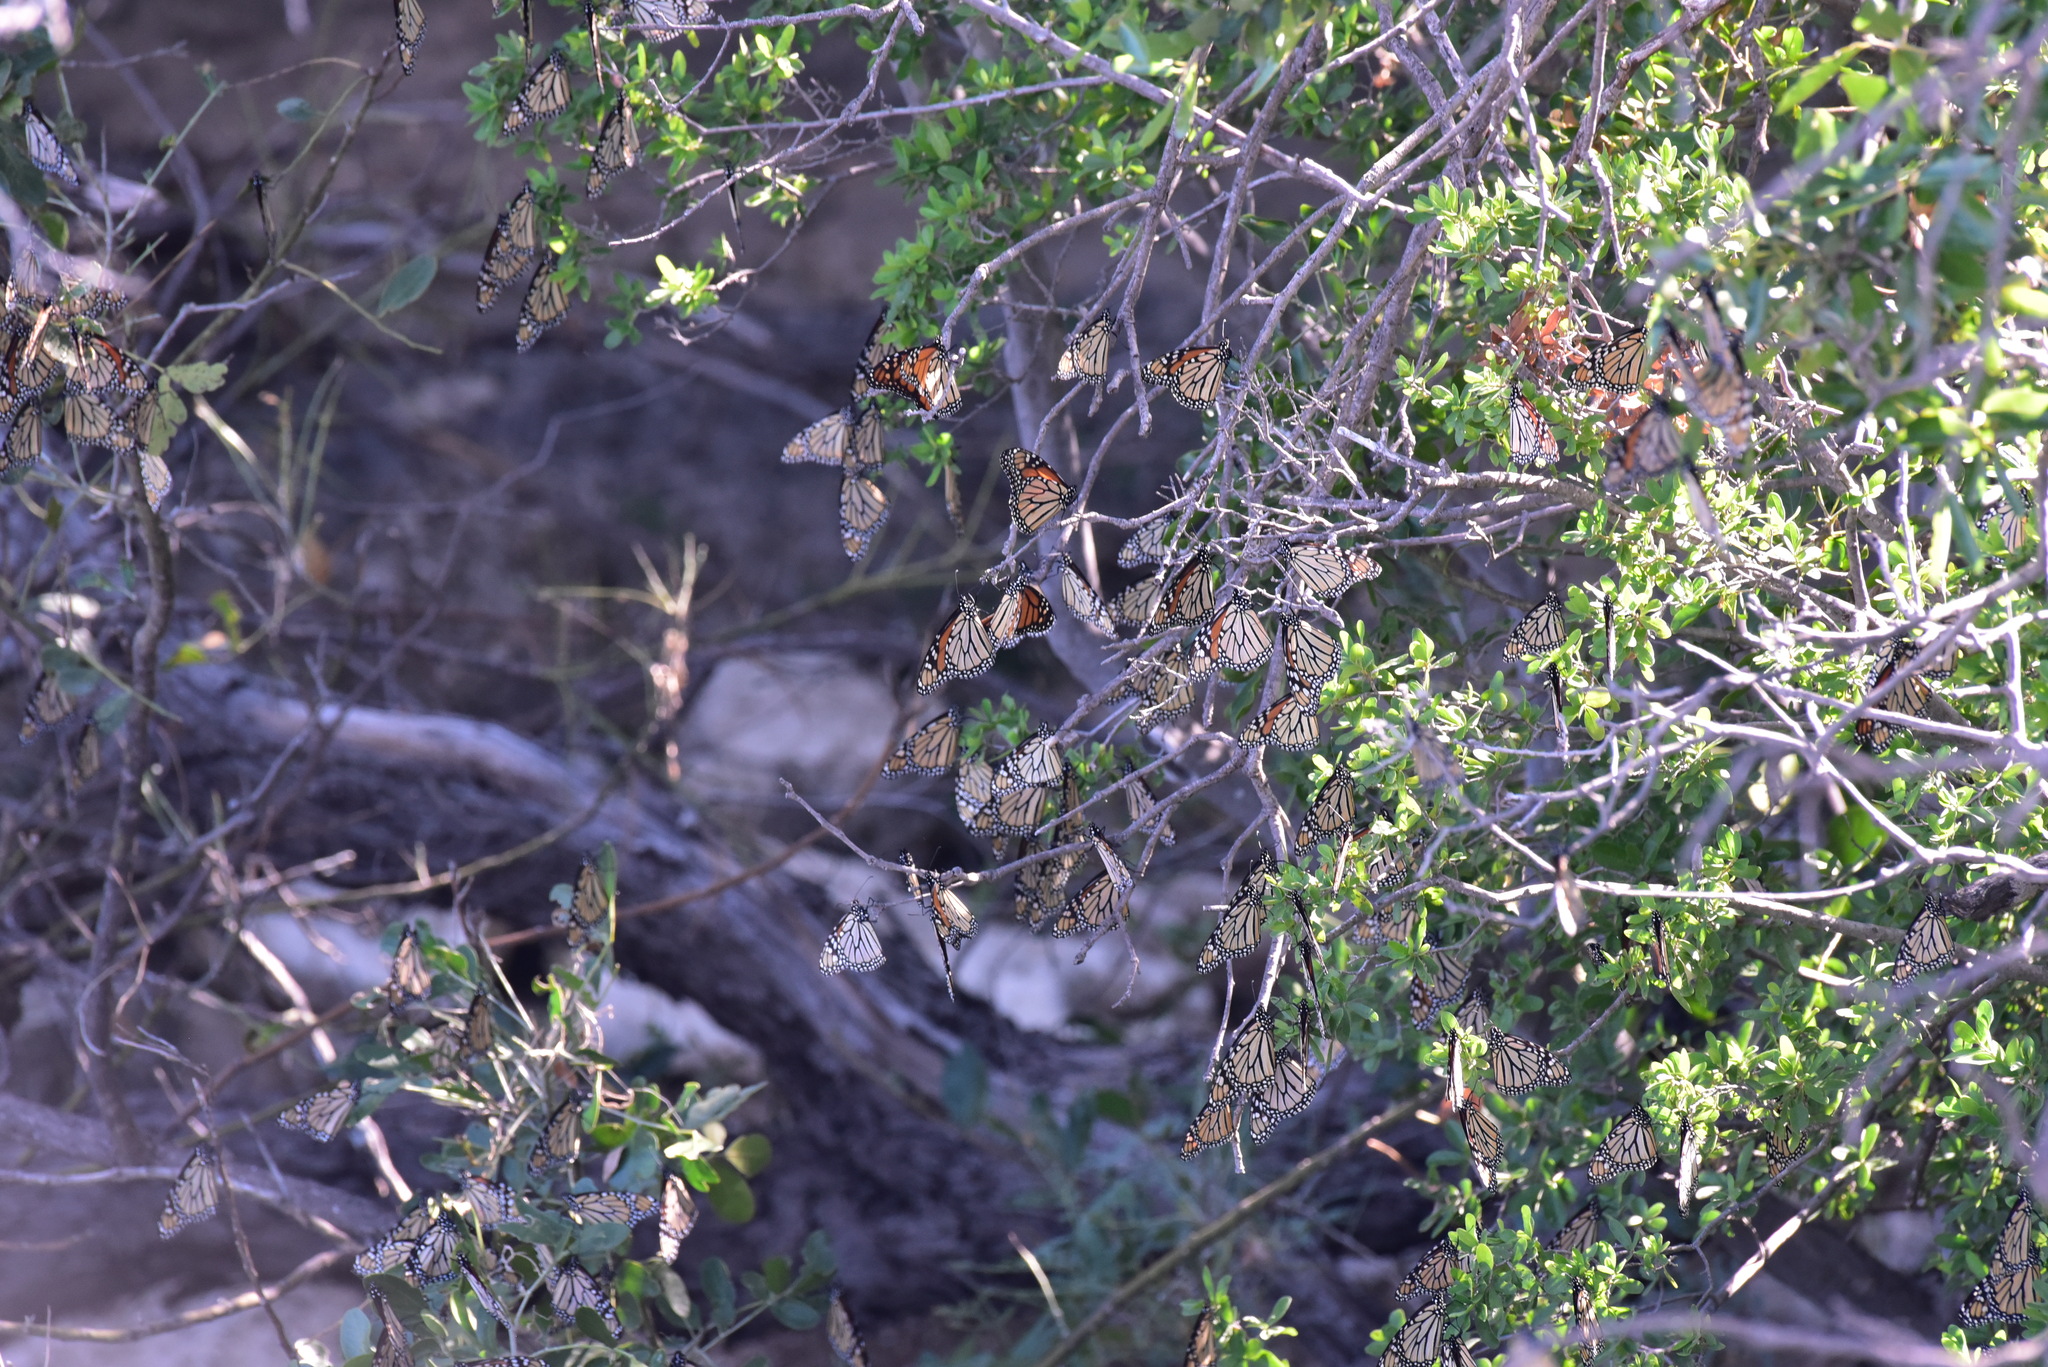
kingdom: Animalia
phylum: Arthropoda
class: Insecta
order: Lepidoptera
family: Nymphalidae
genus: Danaus
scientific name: Danaus plexippus
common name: Monarch
